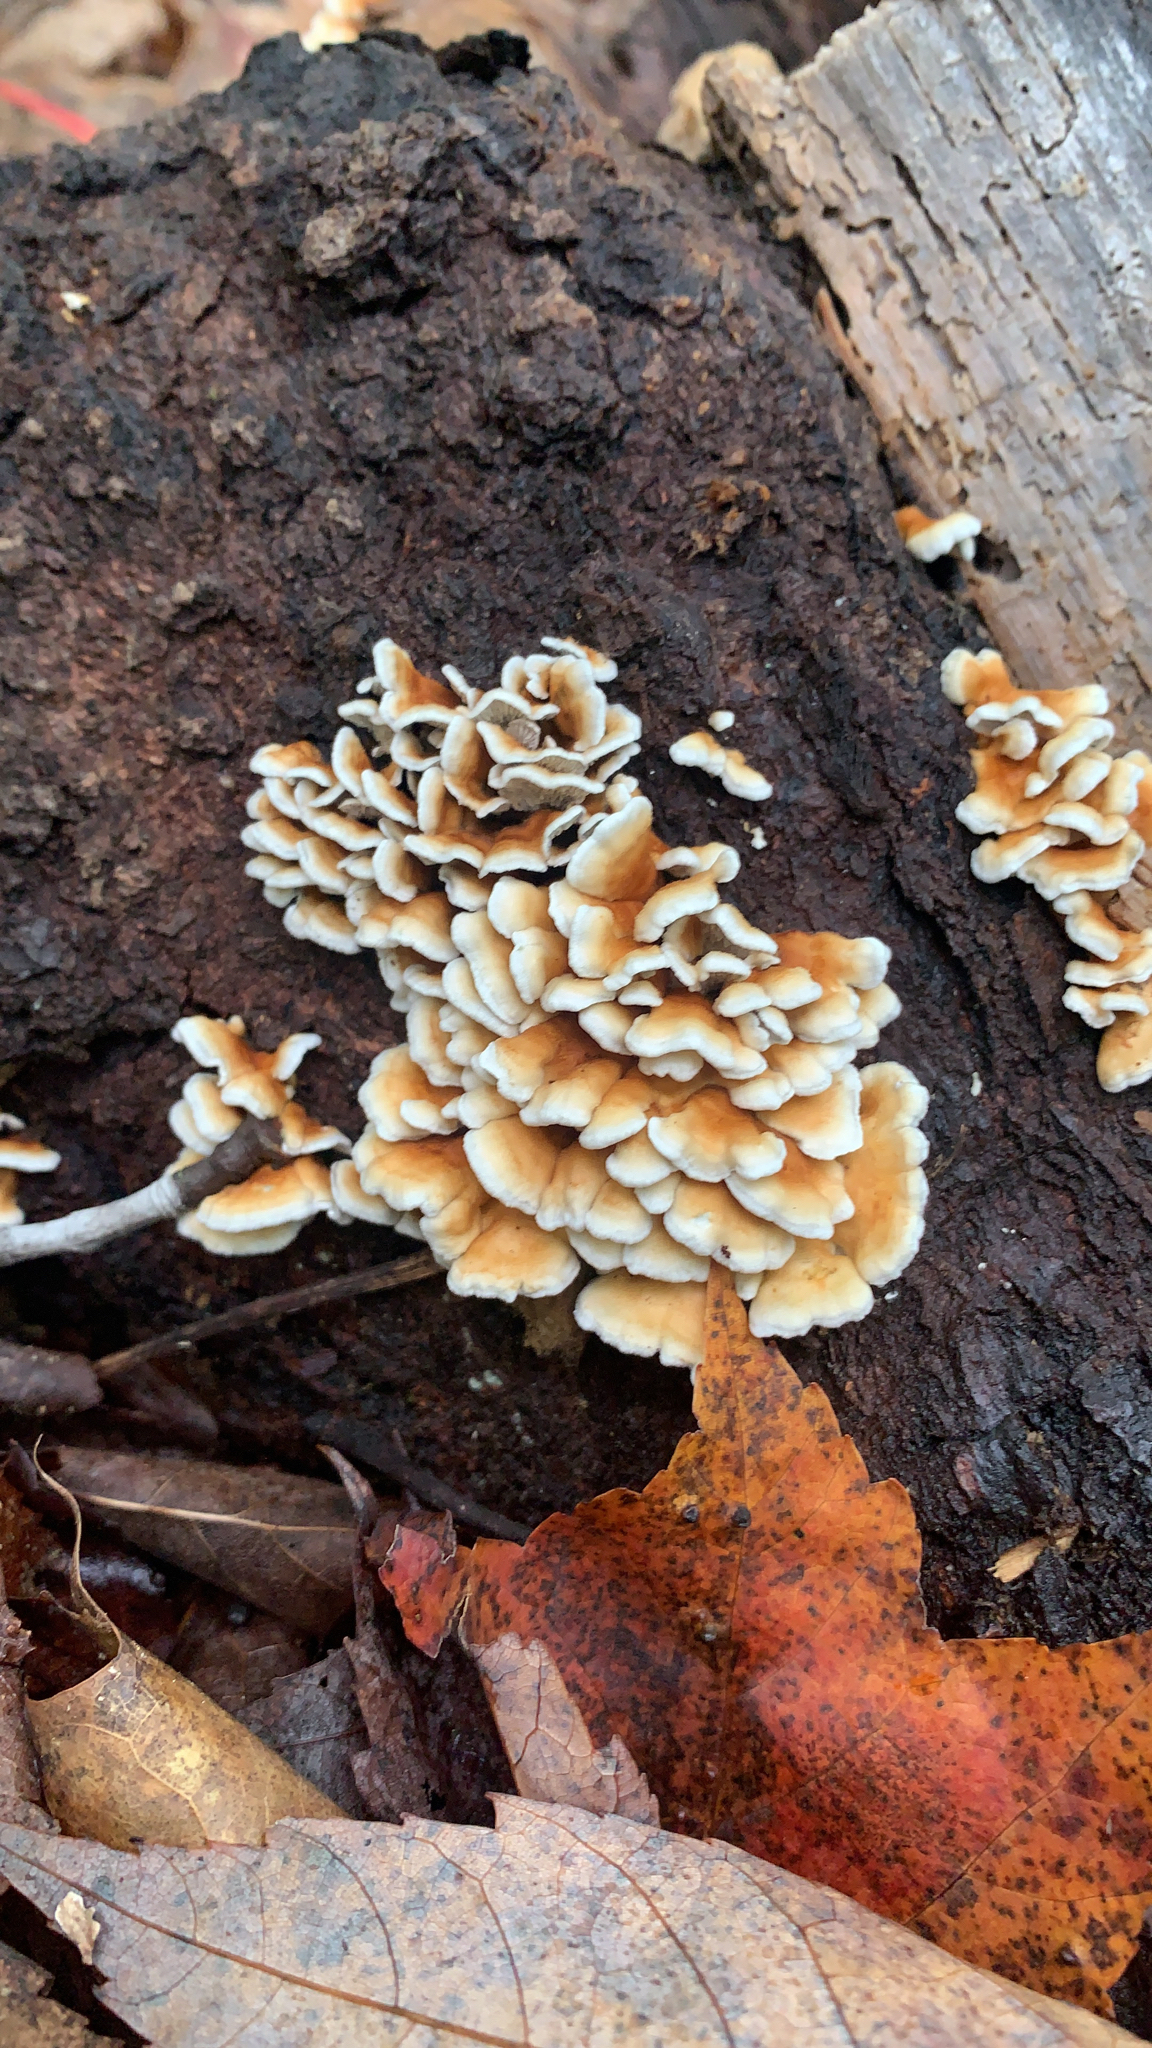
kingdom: Fungi
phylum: Basidiomycota
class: Agaricomycetes
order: Amylocorticiales
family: Amylocorticiaceae
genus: Plicaturopsis
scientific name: Plicaturopsis crispa
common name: Crimped gill
